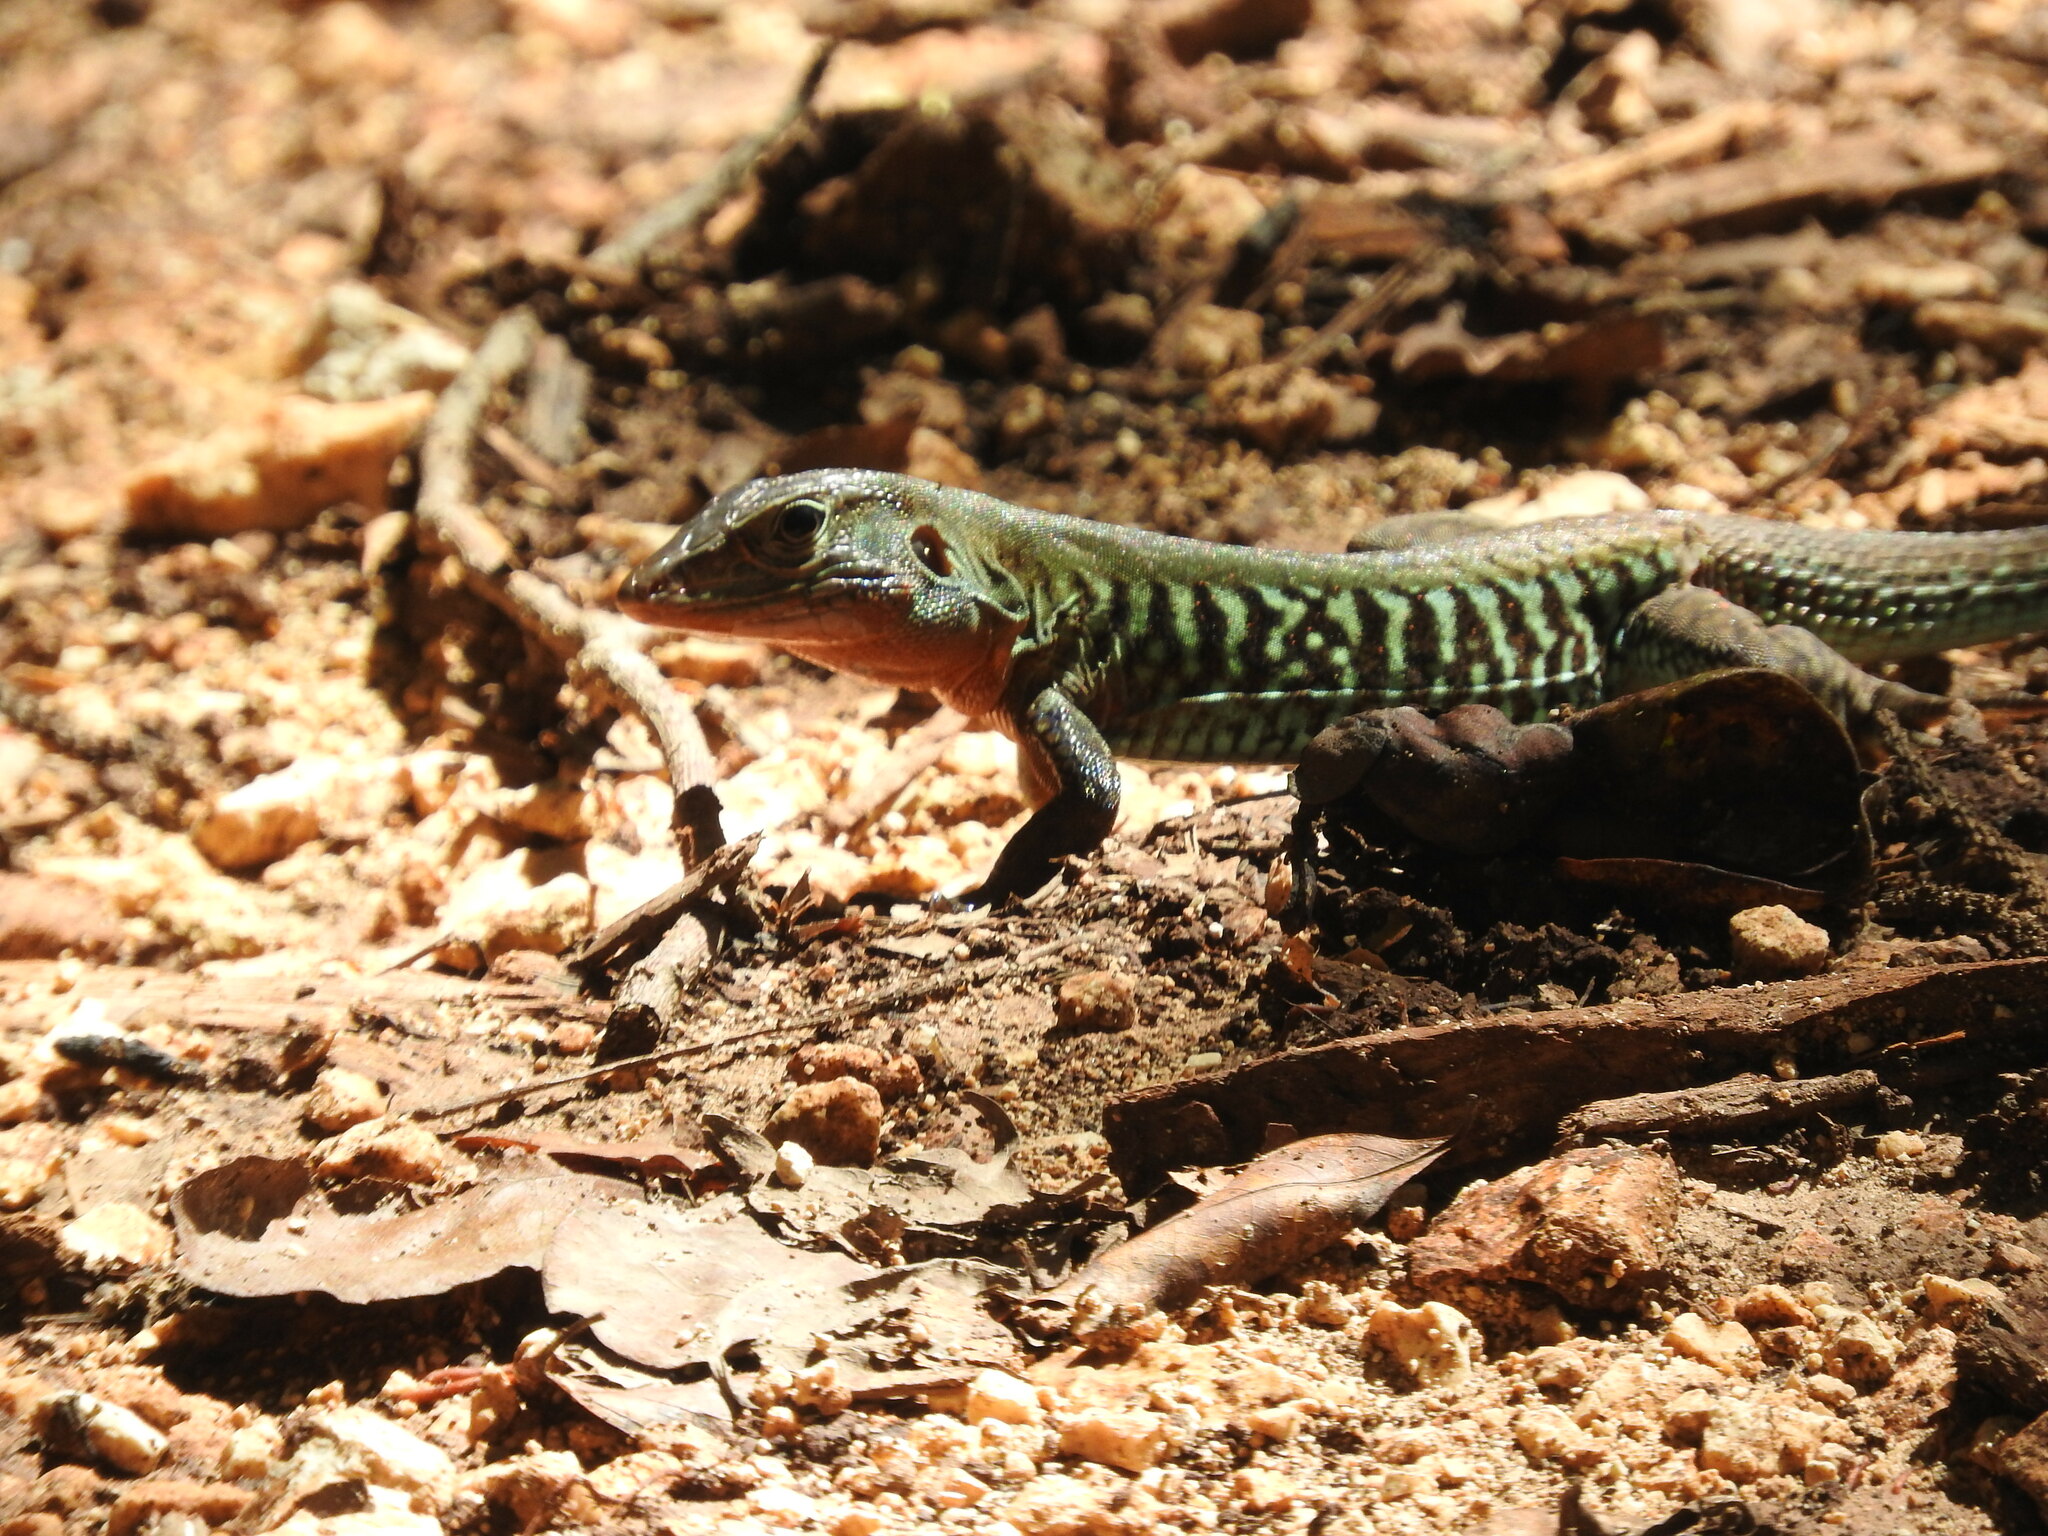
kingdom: Animalia
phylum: Chordata
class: Squamata
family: Teiidae
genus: Holcosus
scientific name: Holcosus undulatus
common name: Rainbow ameiva
